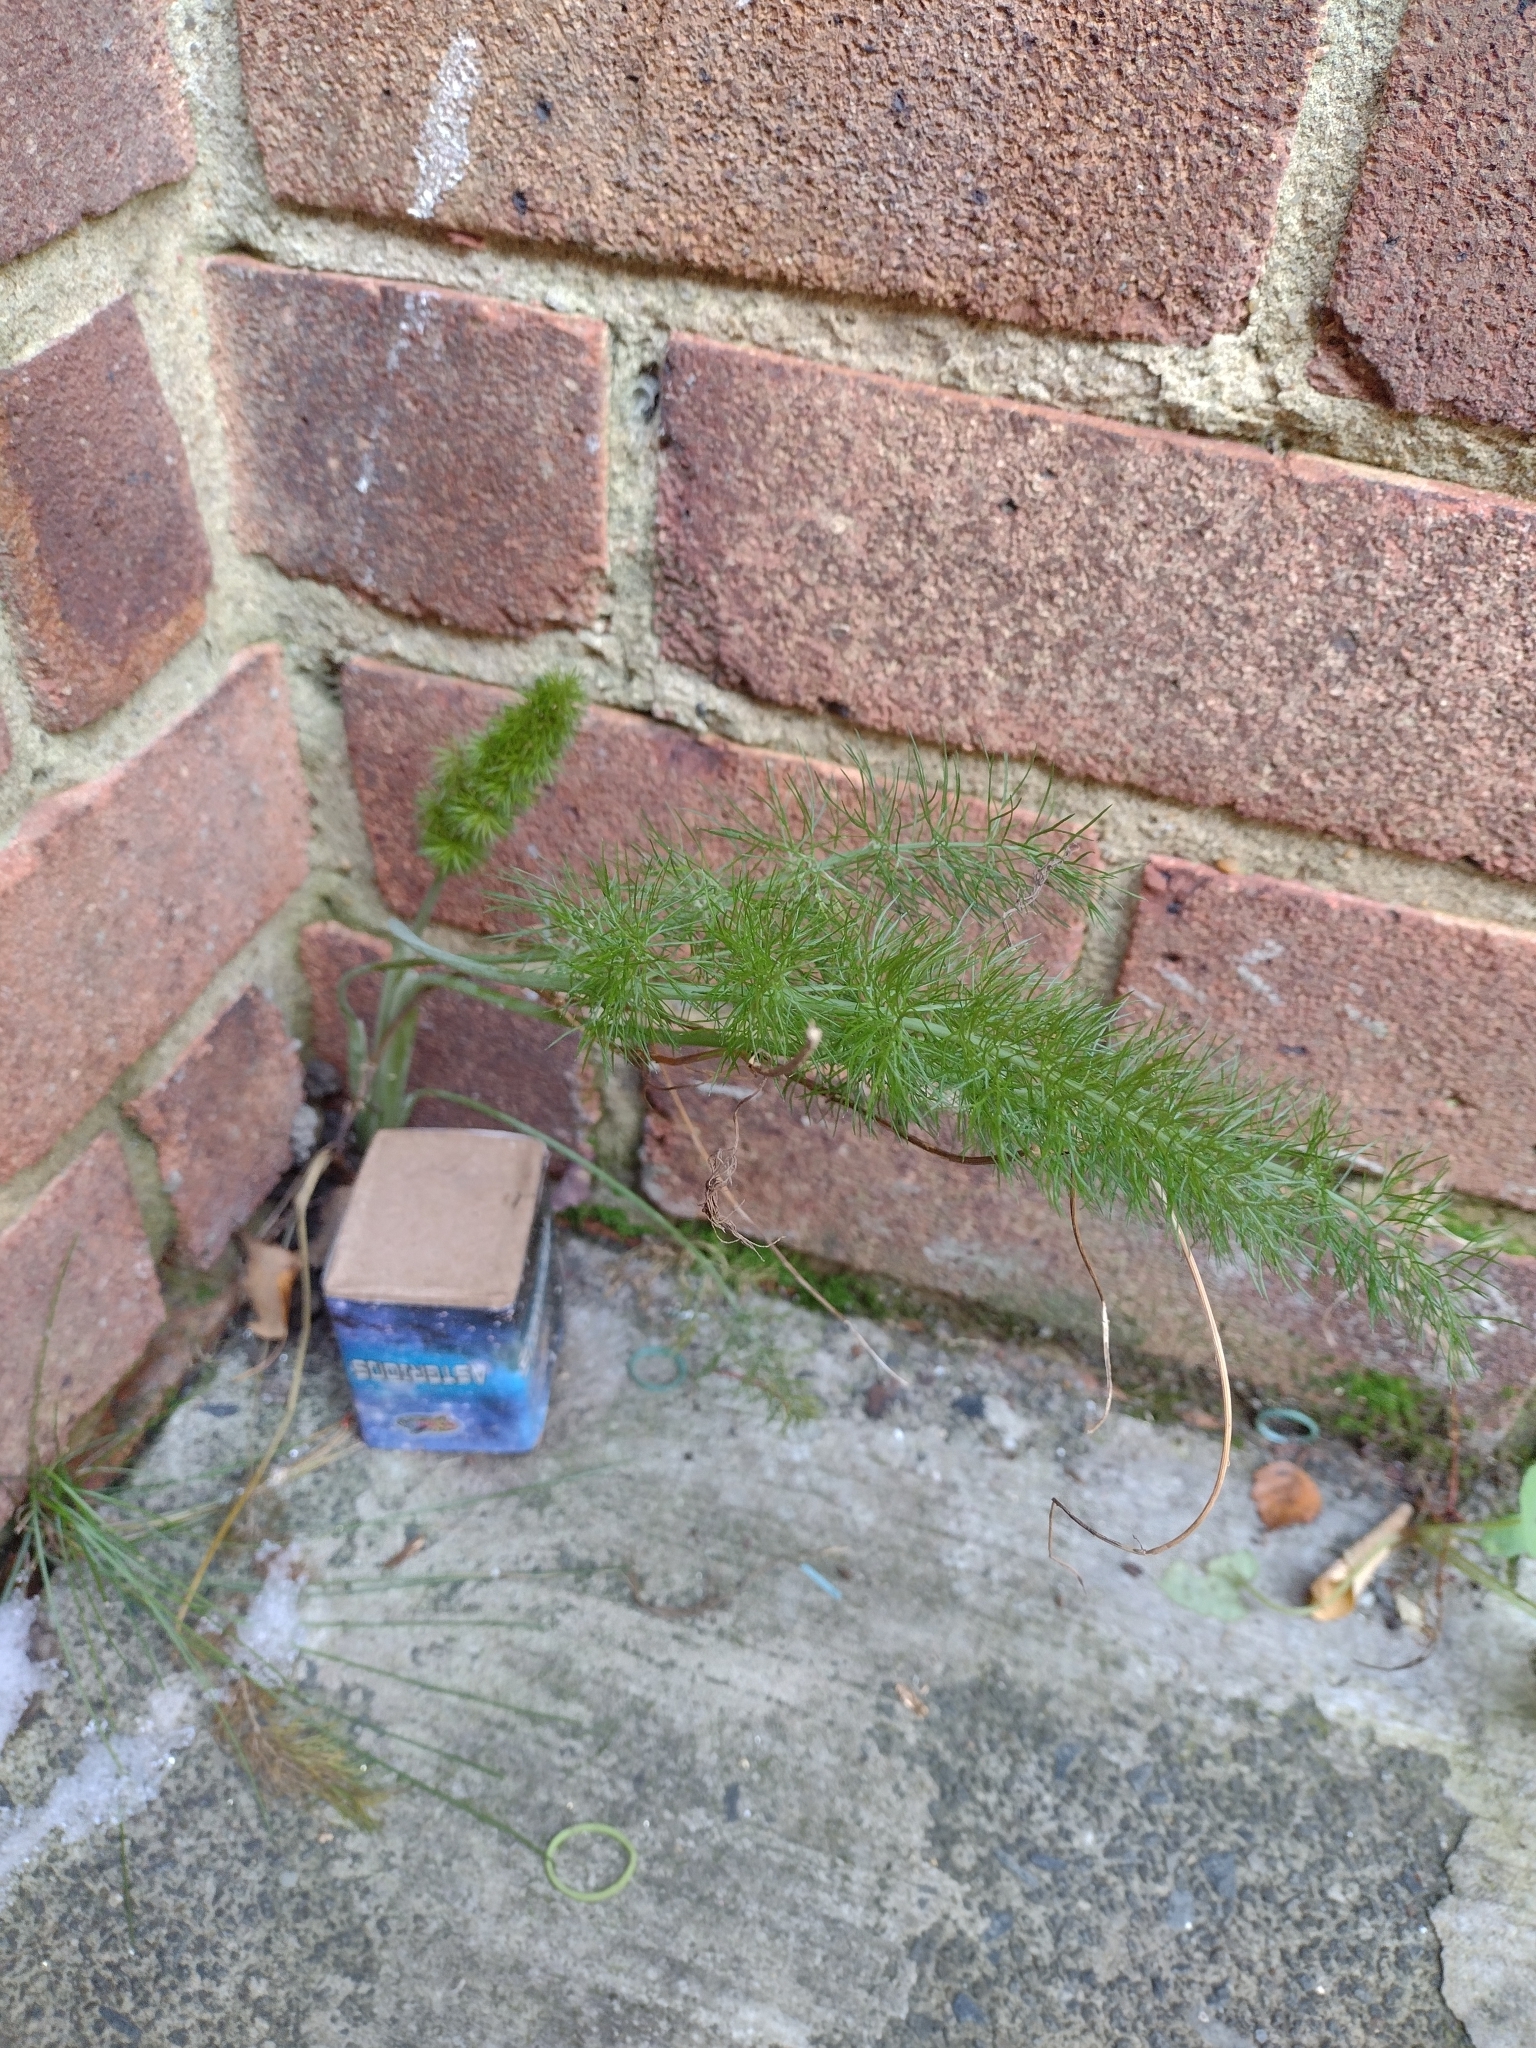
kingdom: Plantae
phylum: Tracheophyta
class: Magnoliopsida
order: Apiales
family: Apiaceae
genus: Foeniculum
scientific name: Foeniculum vulgare
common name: Fennel
